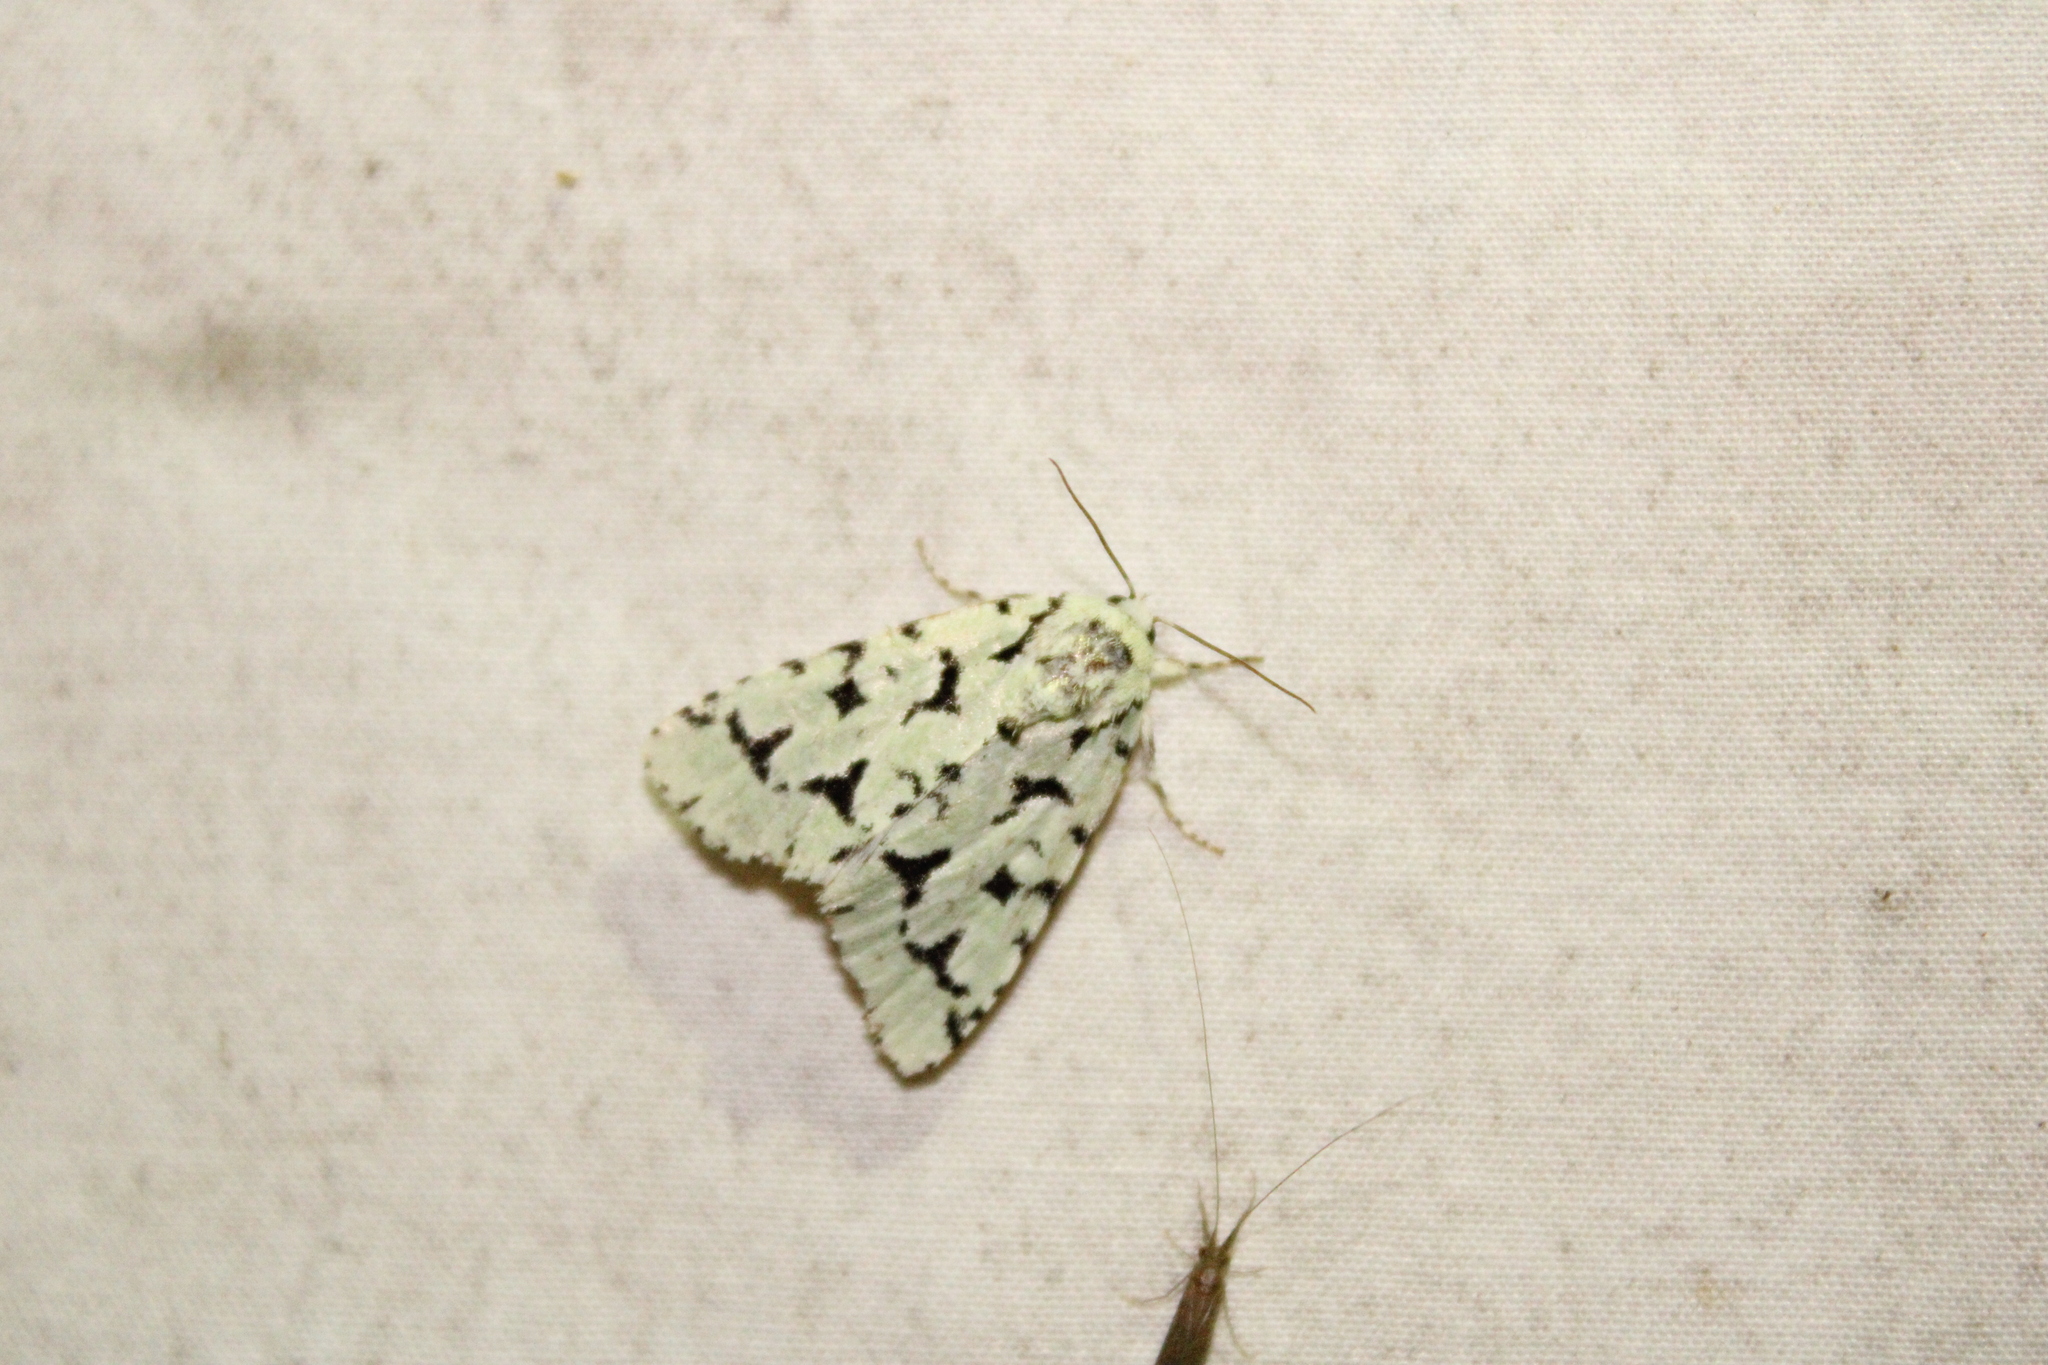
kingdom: Animalia
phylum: Arthropoda
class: Insecta
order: Lepidoptera
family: Noctuidae
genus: Acronicta
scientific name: Acronicta fallax
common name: Green marvel
